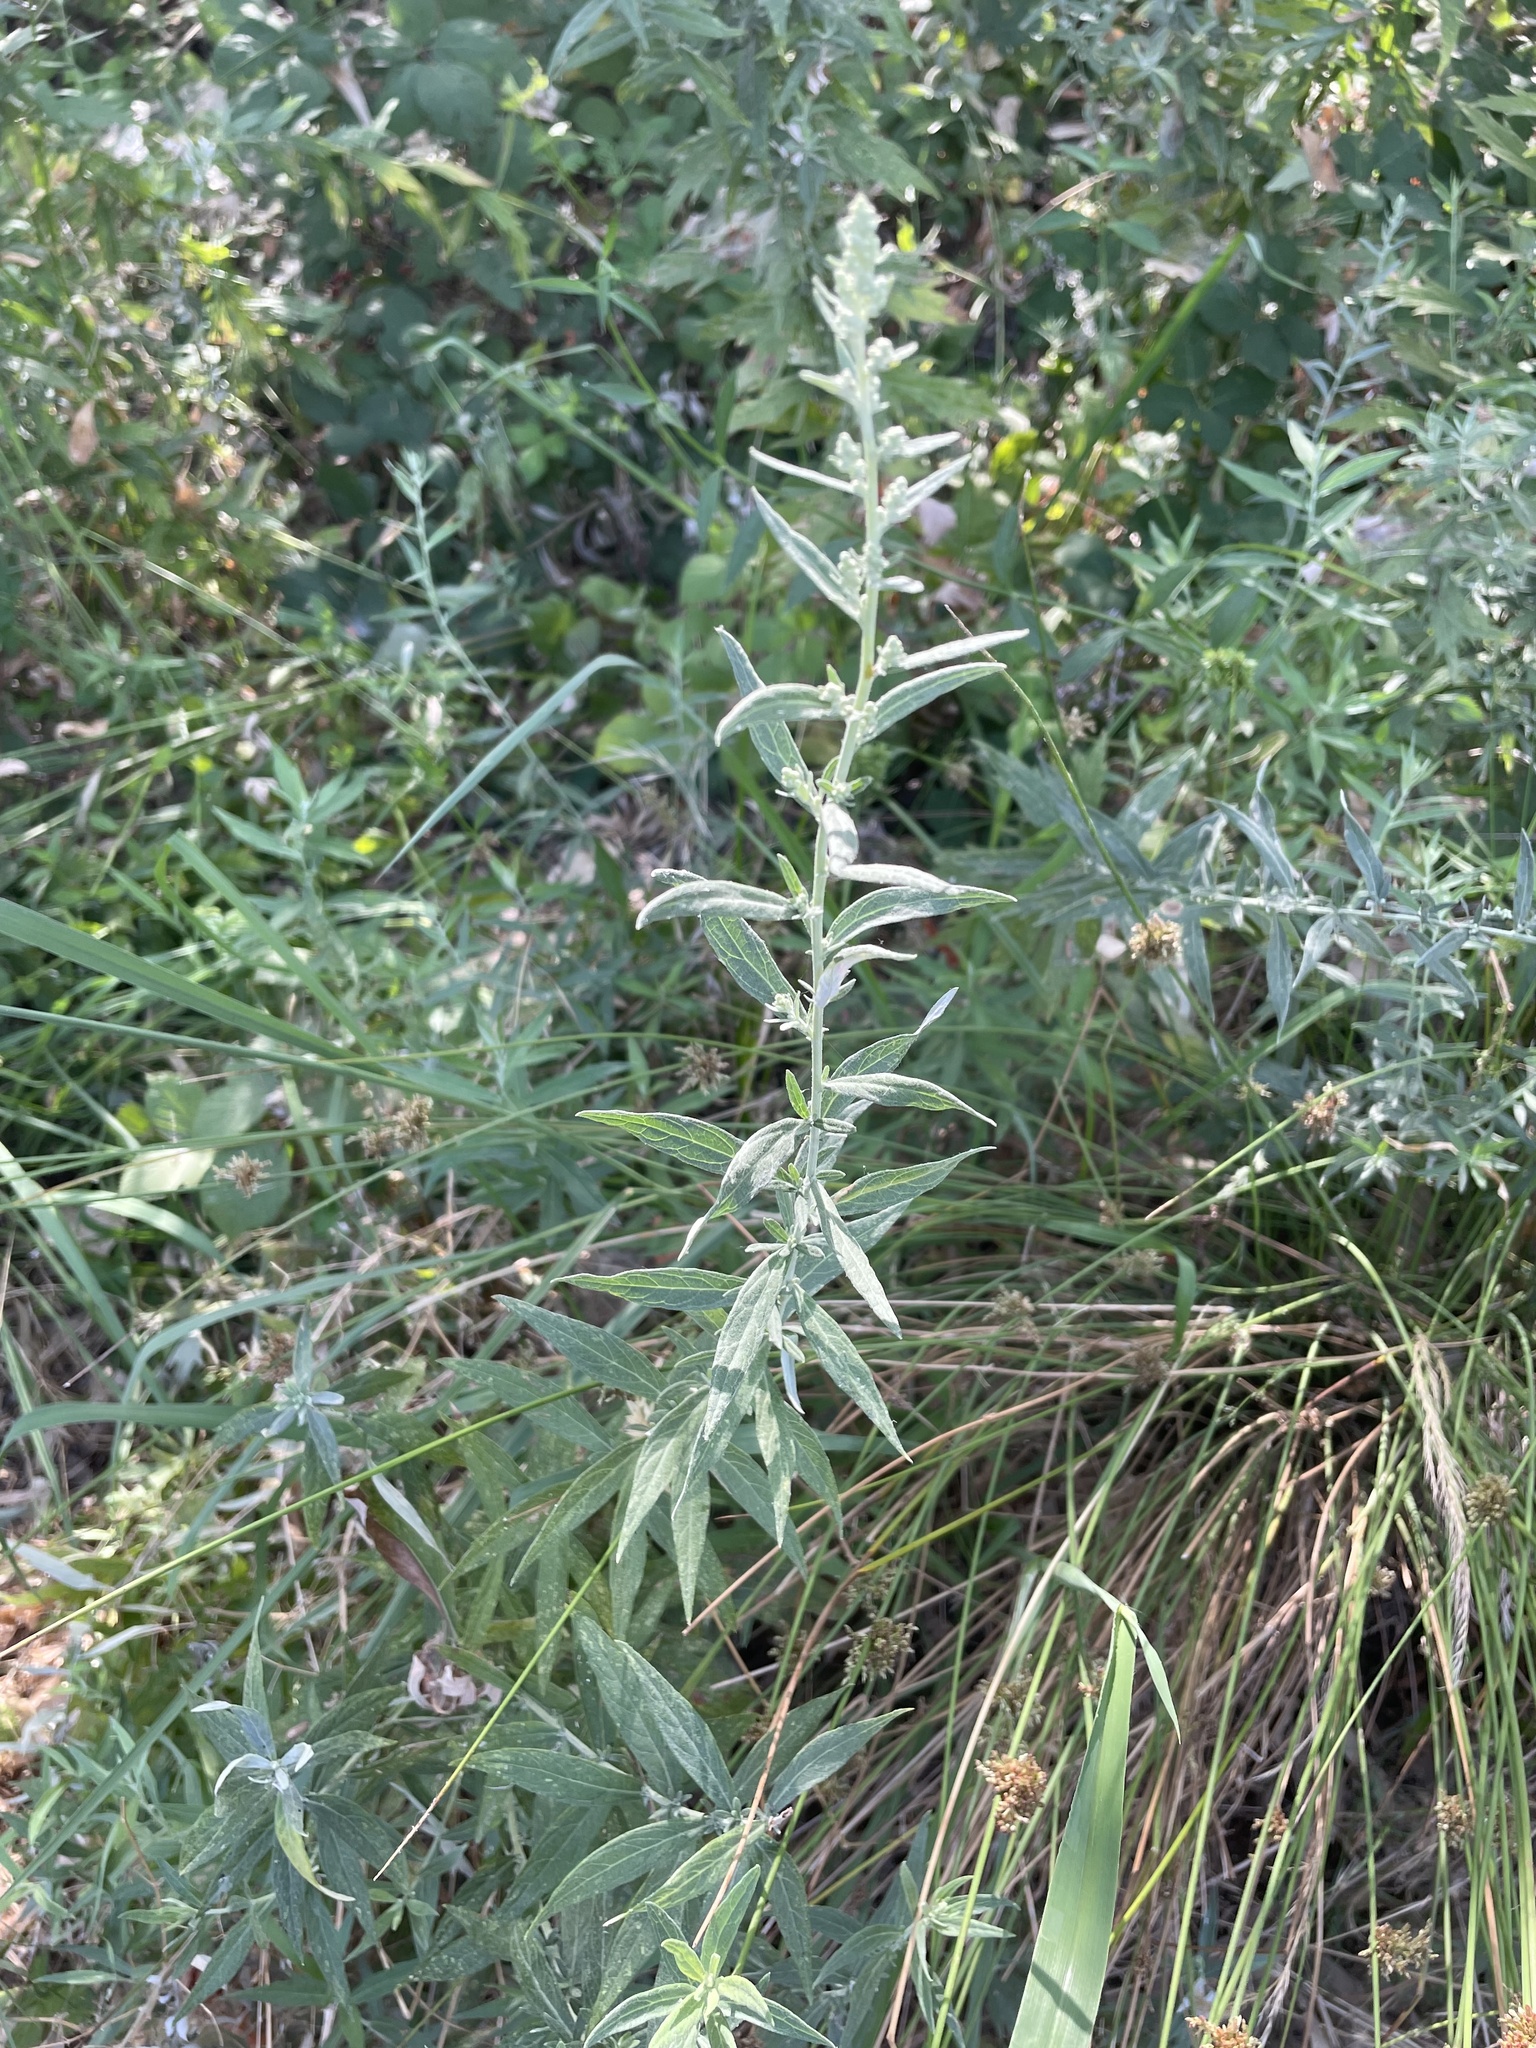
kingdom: Plantae
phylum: Tracheophyta
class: Magnoliopsida
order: Asterales
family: Asteraceae
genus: Artemisia
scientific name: Artemisia douglasiana
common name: Northwest mugwort
